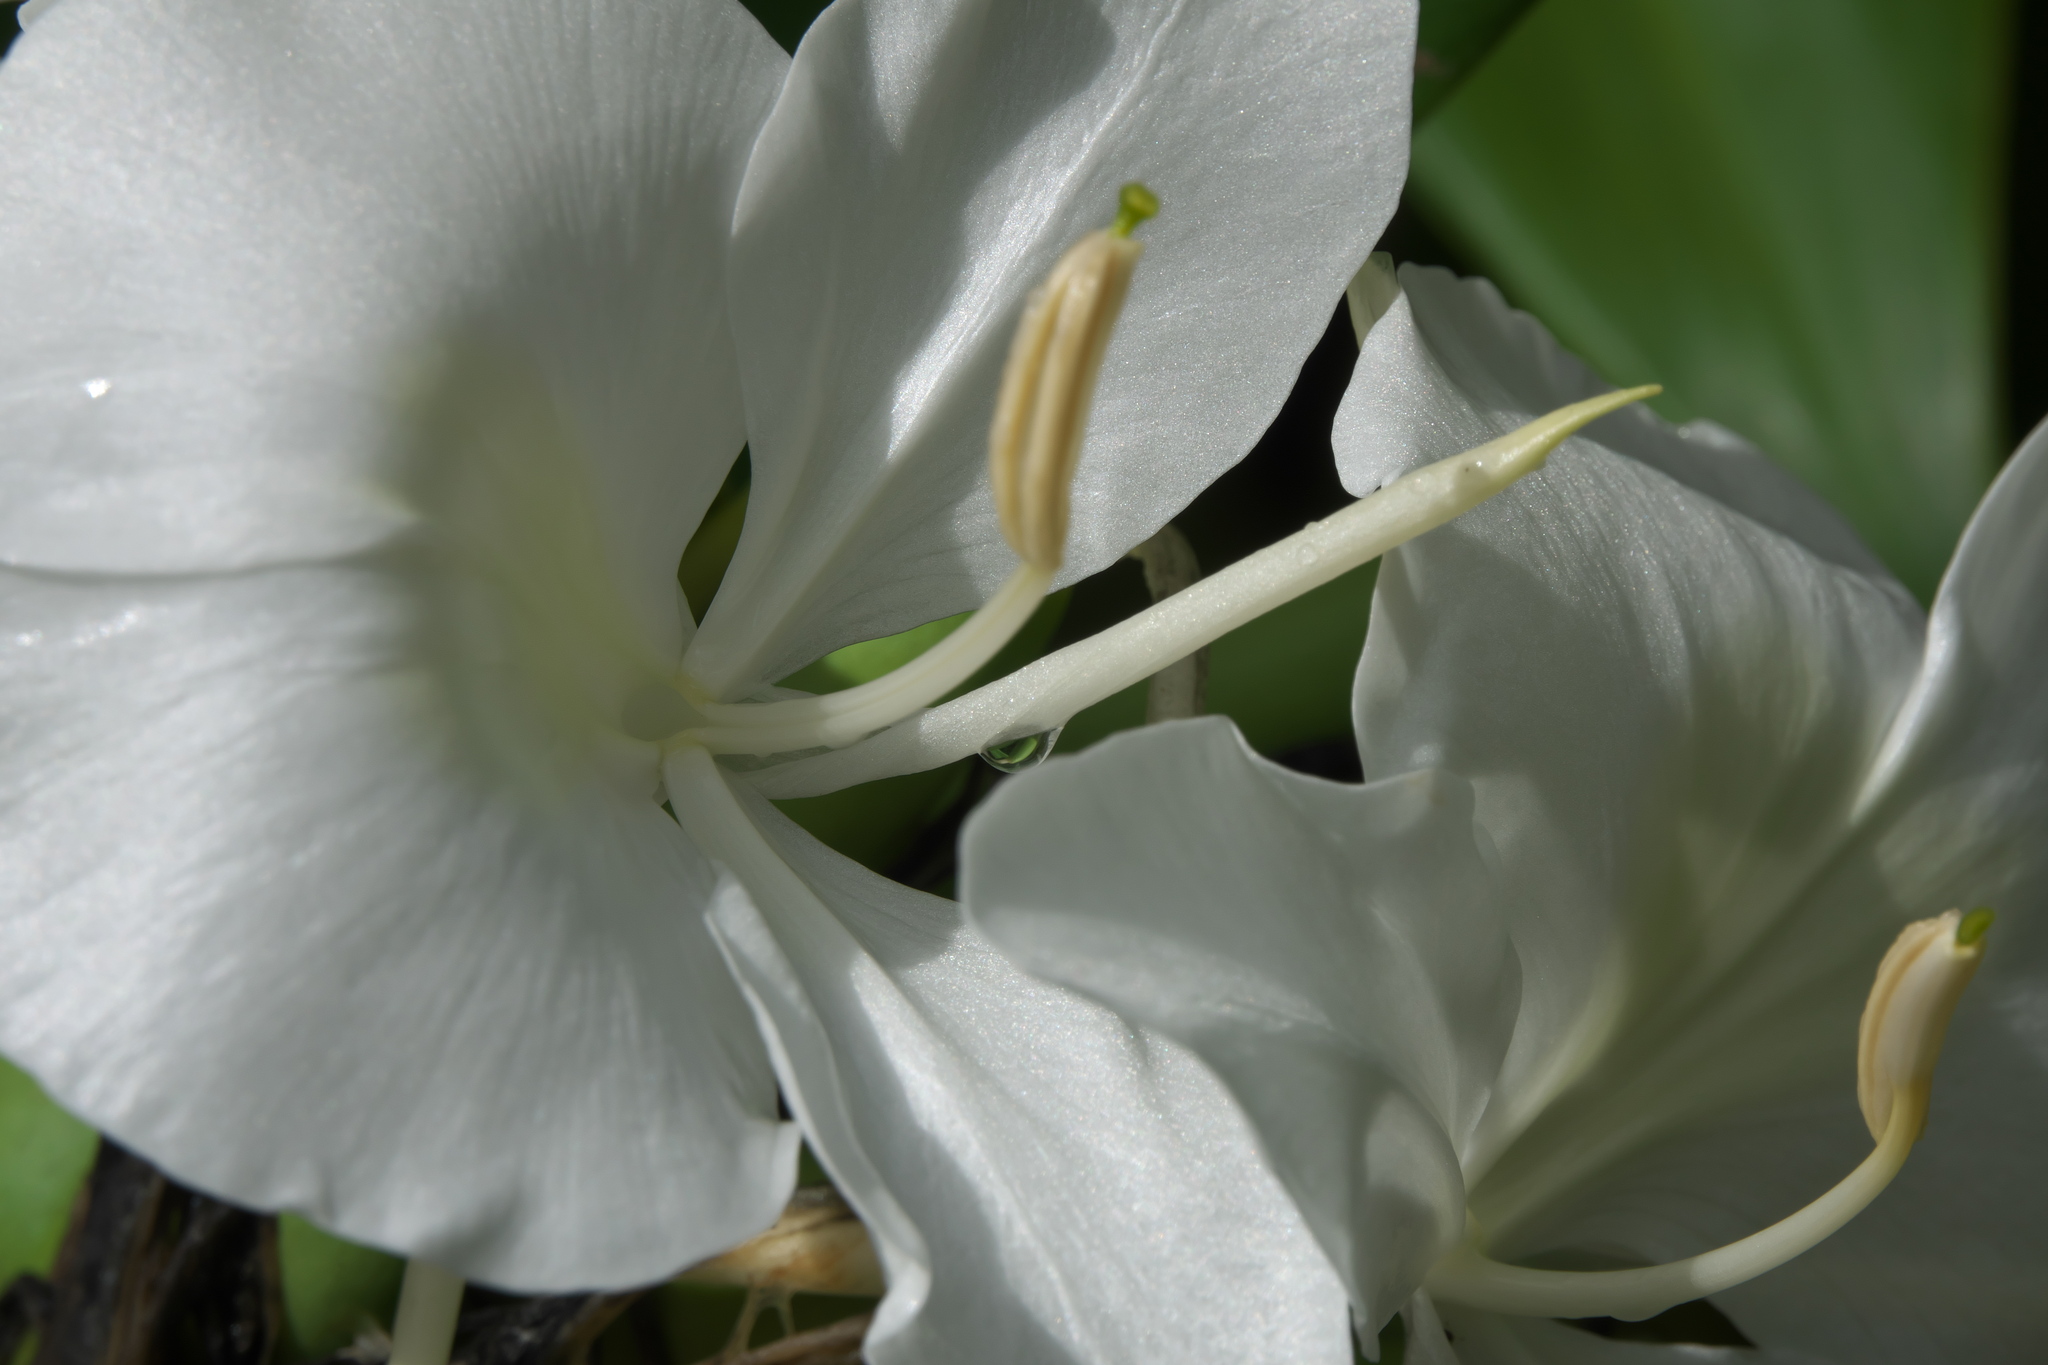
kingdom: Plantae
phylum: Tracheophyta
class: Liliopsida
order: Zingiberales
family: Zingiberaceae
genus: Hedychium
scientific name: Hedychium coronarium
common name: White garland-lily
